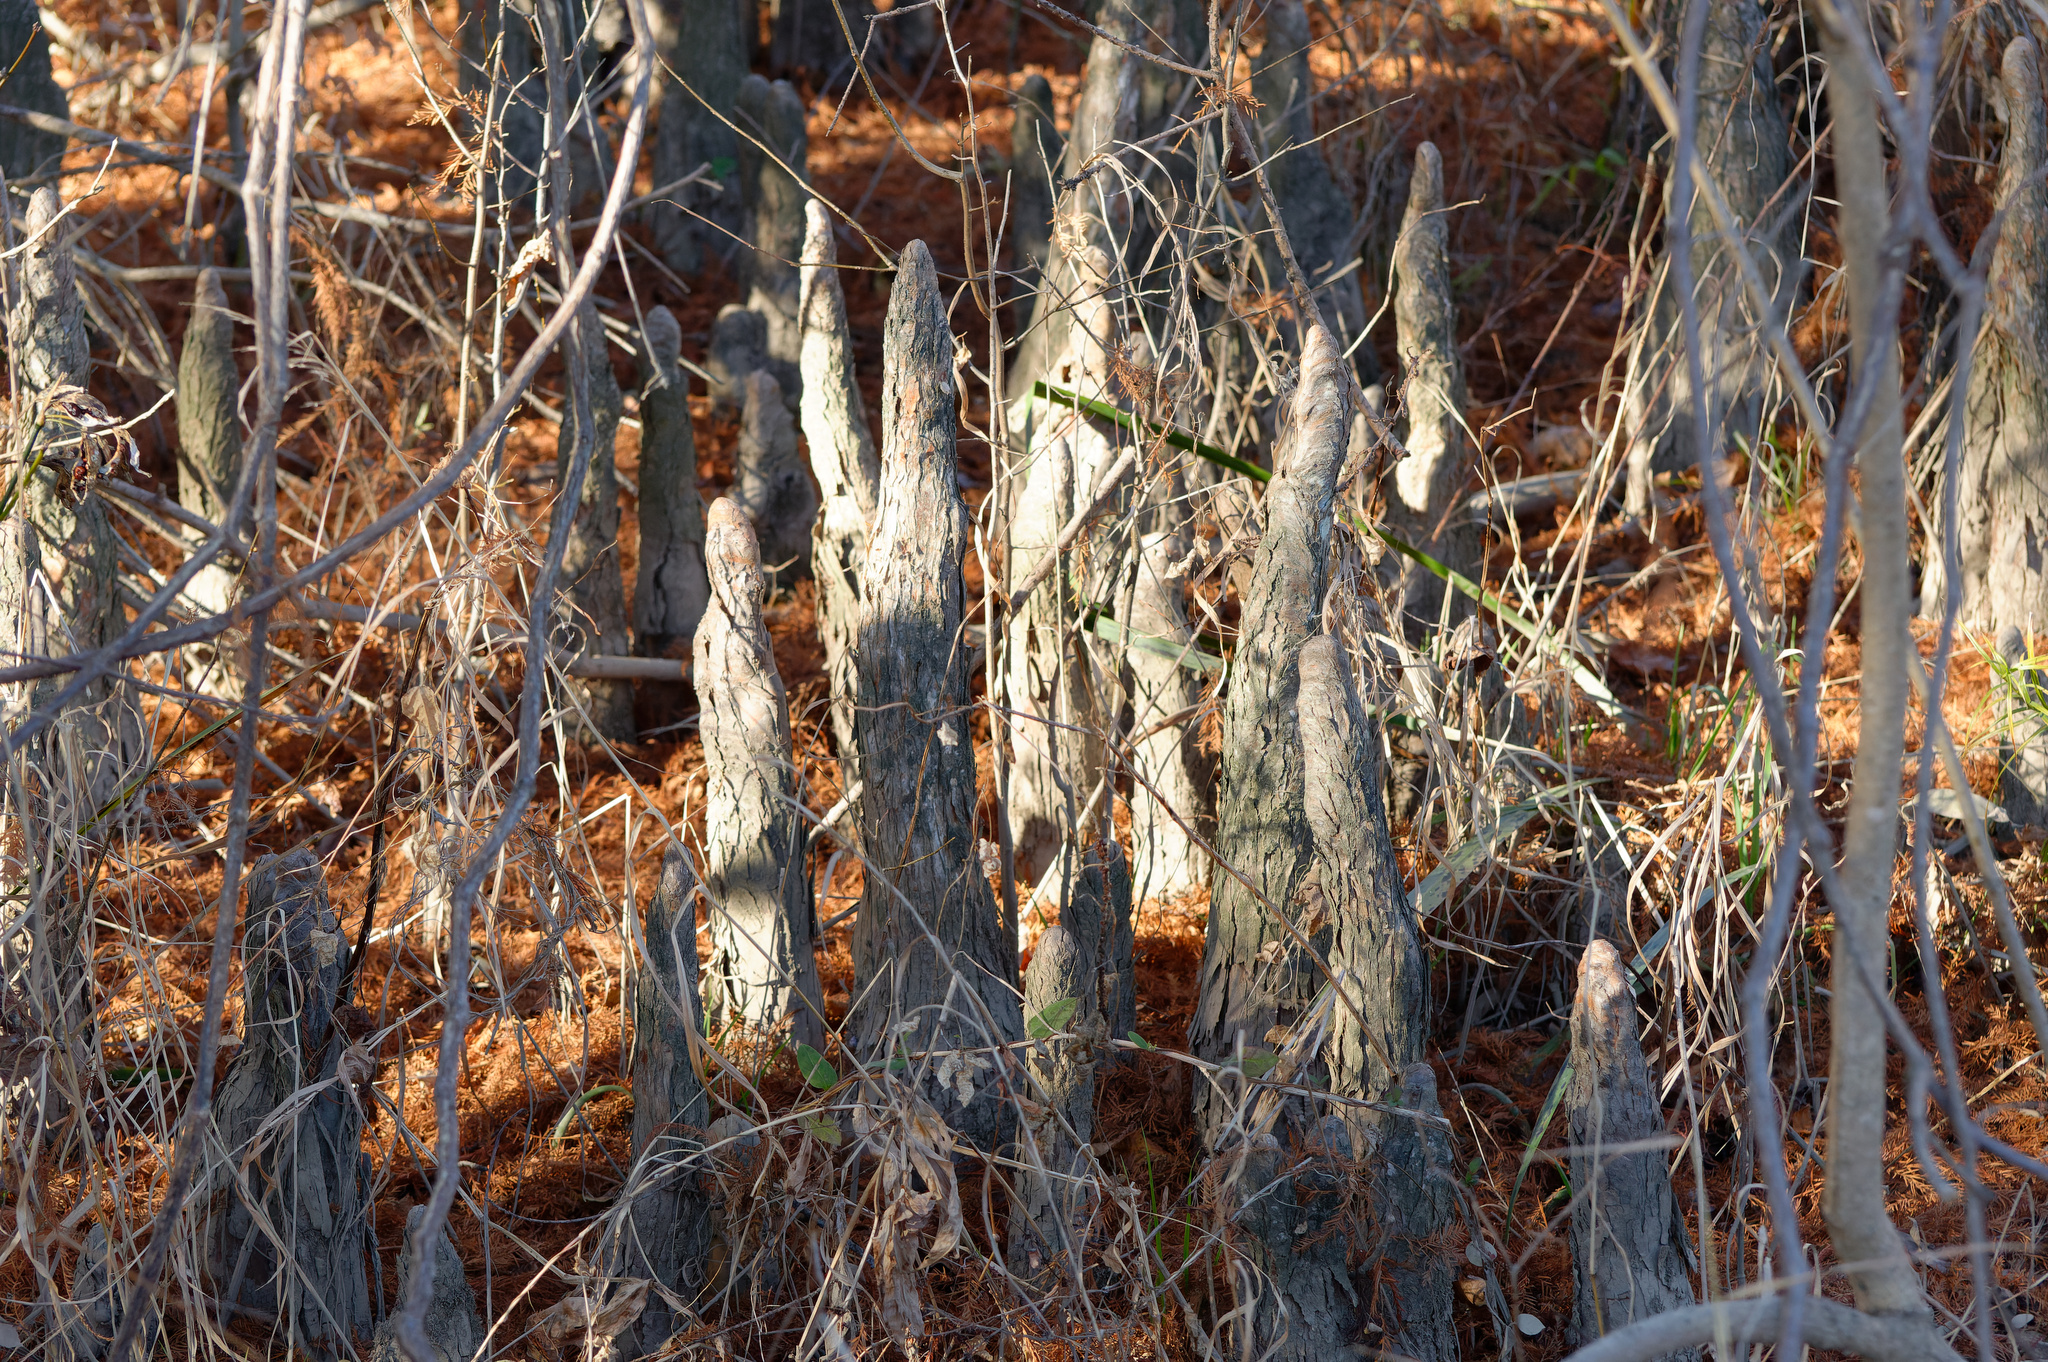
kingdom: Plantae
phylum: Tracheophyta
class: Pinopsida
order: Pinales
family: Cupressaceae
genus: Taxodium
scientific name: Taxodium distichum
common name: Bald cypress
